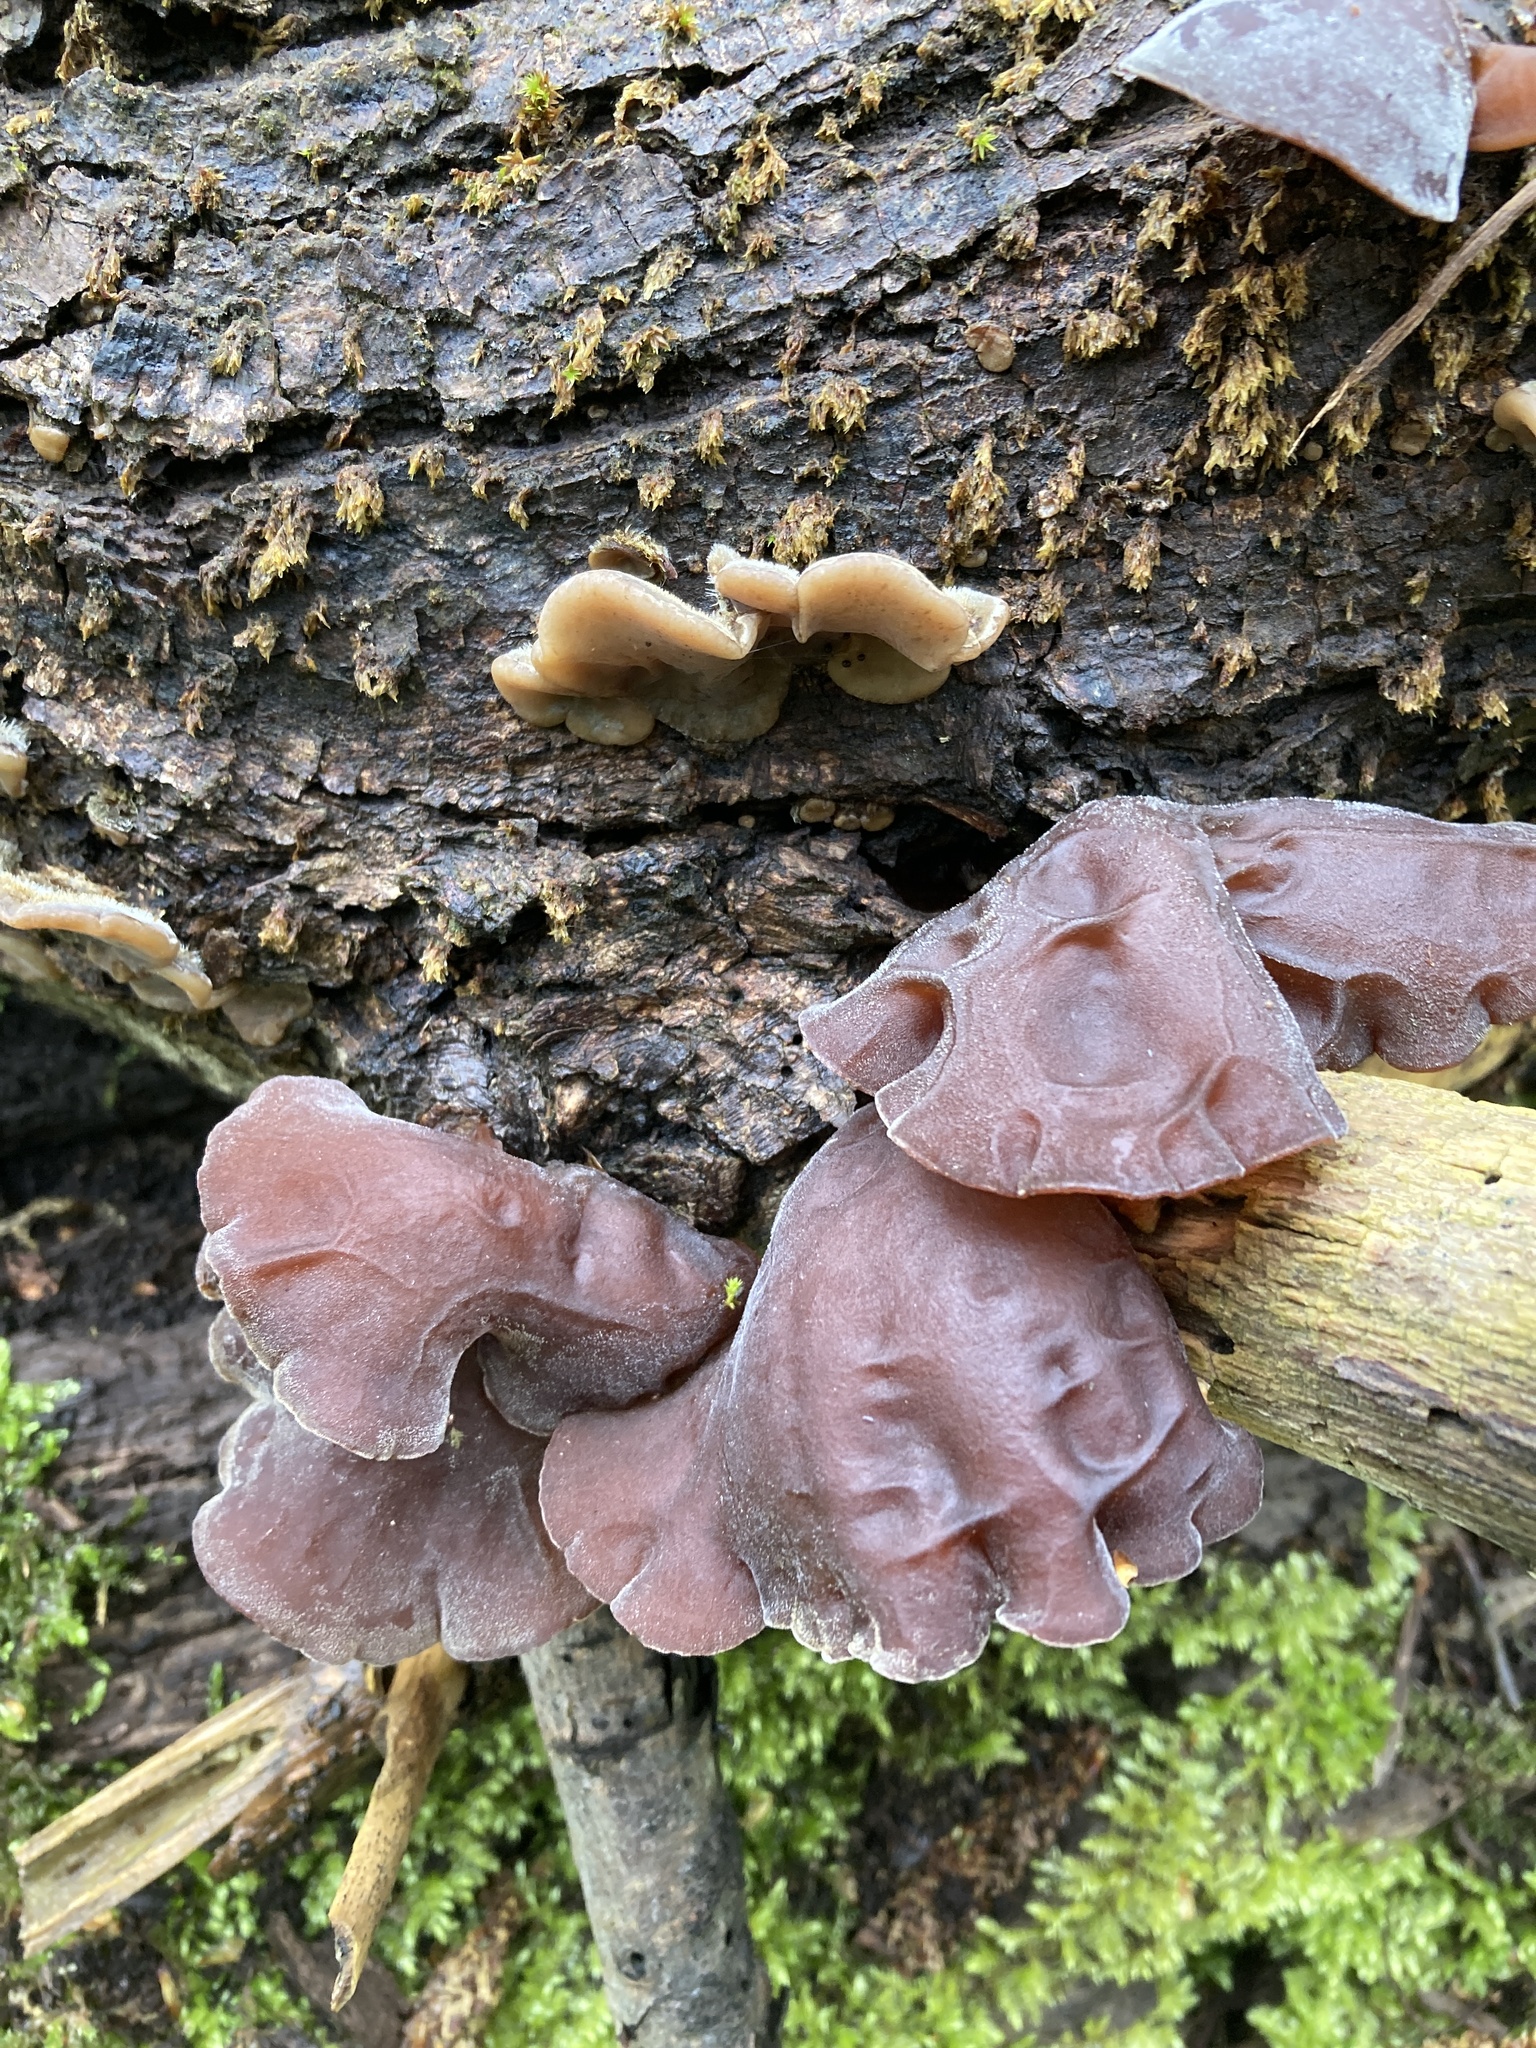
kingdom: Fungi
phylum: Basidiomycota
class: Agaricomycetes
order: Auriculariales
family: Auriculariaceae
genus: Auricularia
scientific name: Auricularia auricula-judae
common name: Jelly ear
